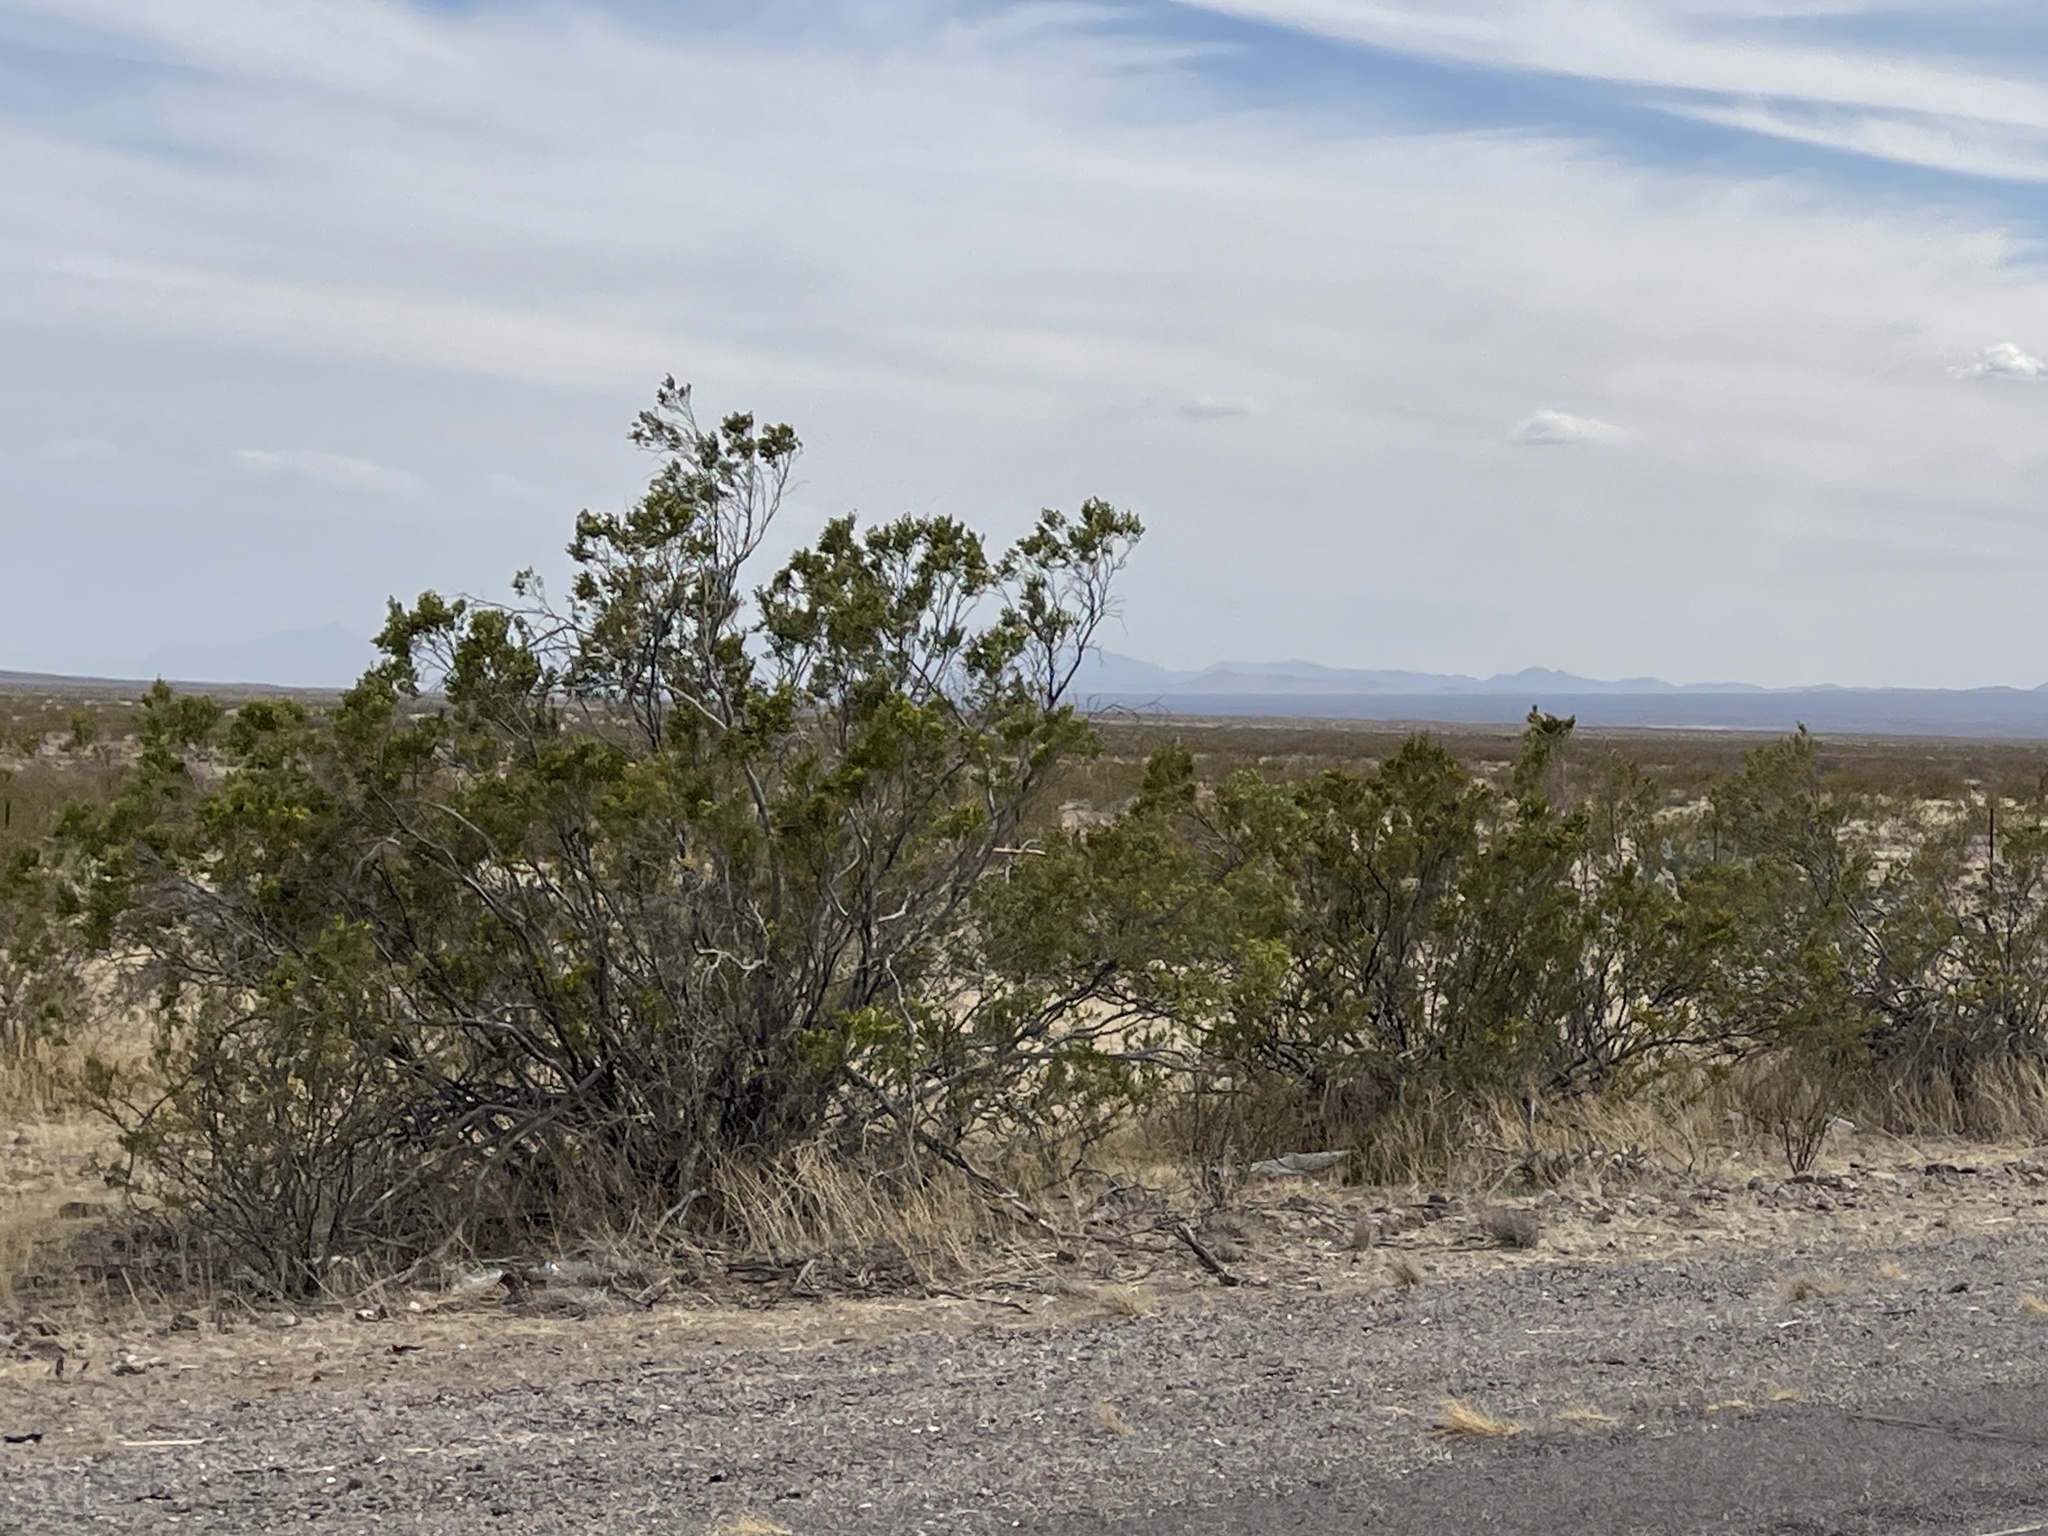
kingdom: Plantae
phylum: Tracheophyta
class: Magnoliopsida
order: Zygophyllales
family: Zygophyllaceae
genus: Larrea
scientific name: Larrea tridentata
